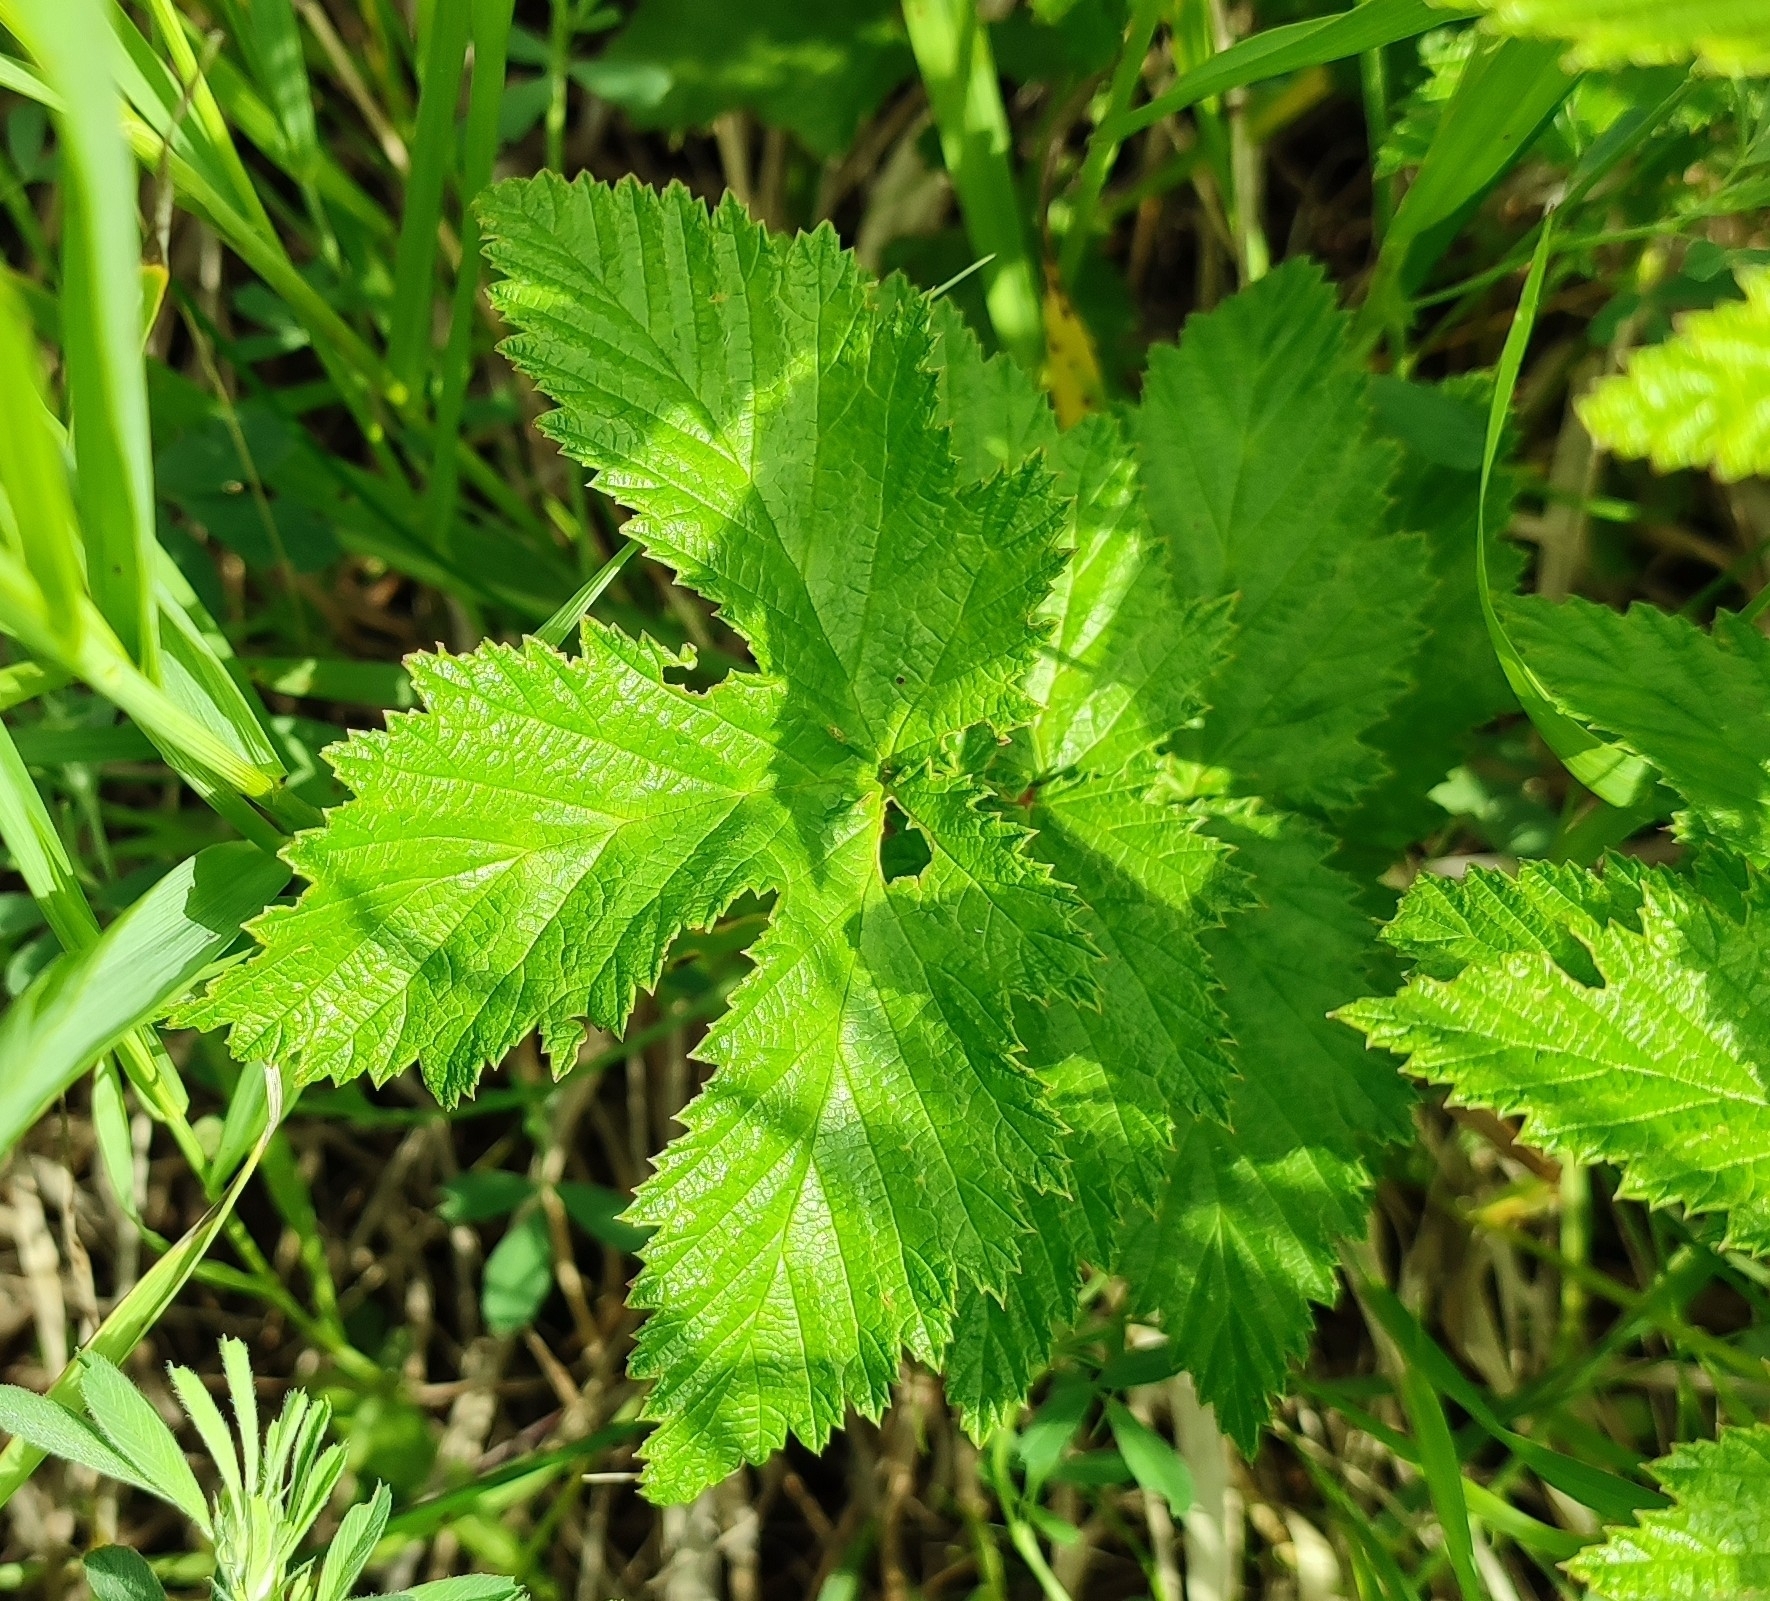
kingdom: Plantae
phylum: Tracheophyta
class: Magnoliopsida
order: Rosales
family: Rosaceae
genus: Filipendula
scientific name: Filipendula ulmaria
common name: Meadowsweet
